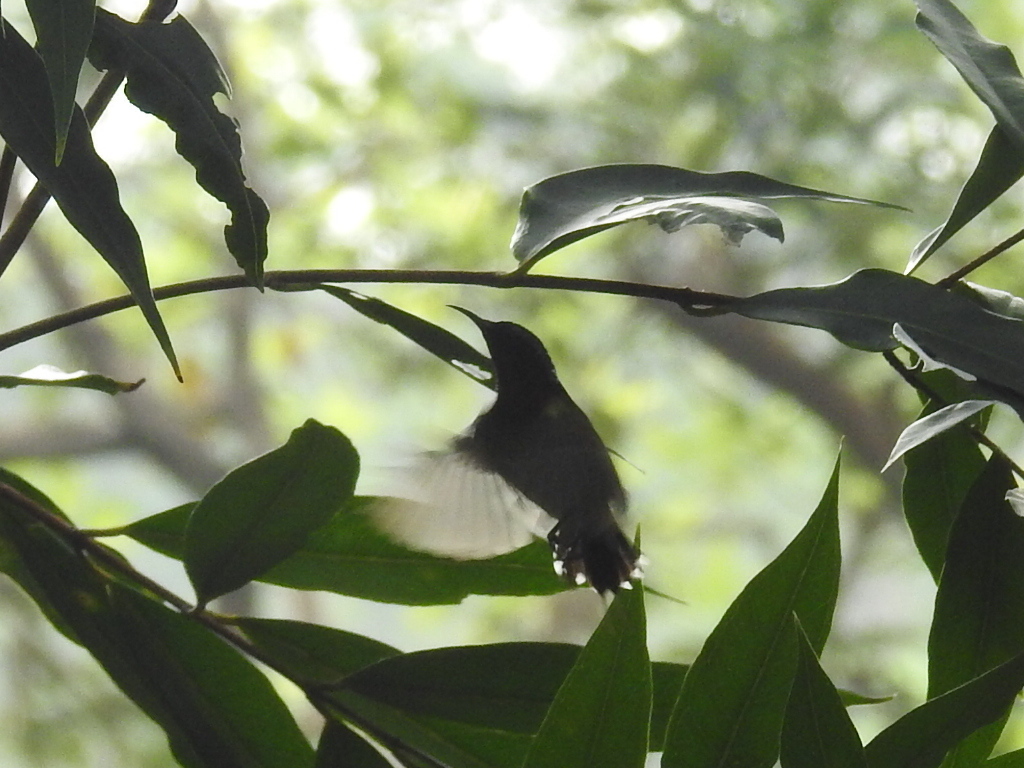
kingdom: Animalia
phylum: Chordata
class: Aves
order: Passeriformes
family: Nectariniidae
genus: Aethopyga
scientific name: Aethopyga christinae
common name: Fork-tailed sunbird
